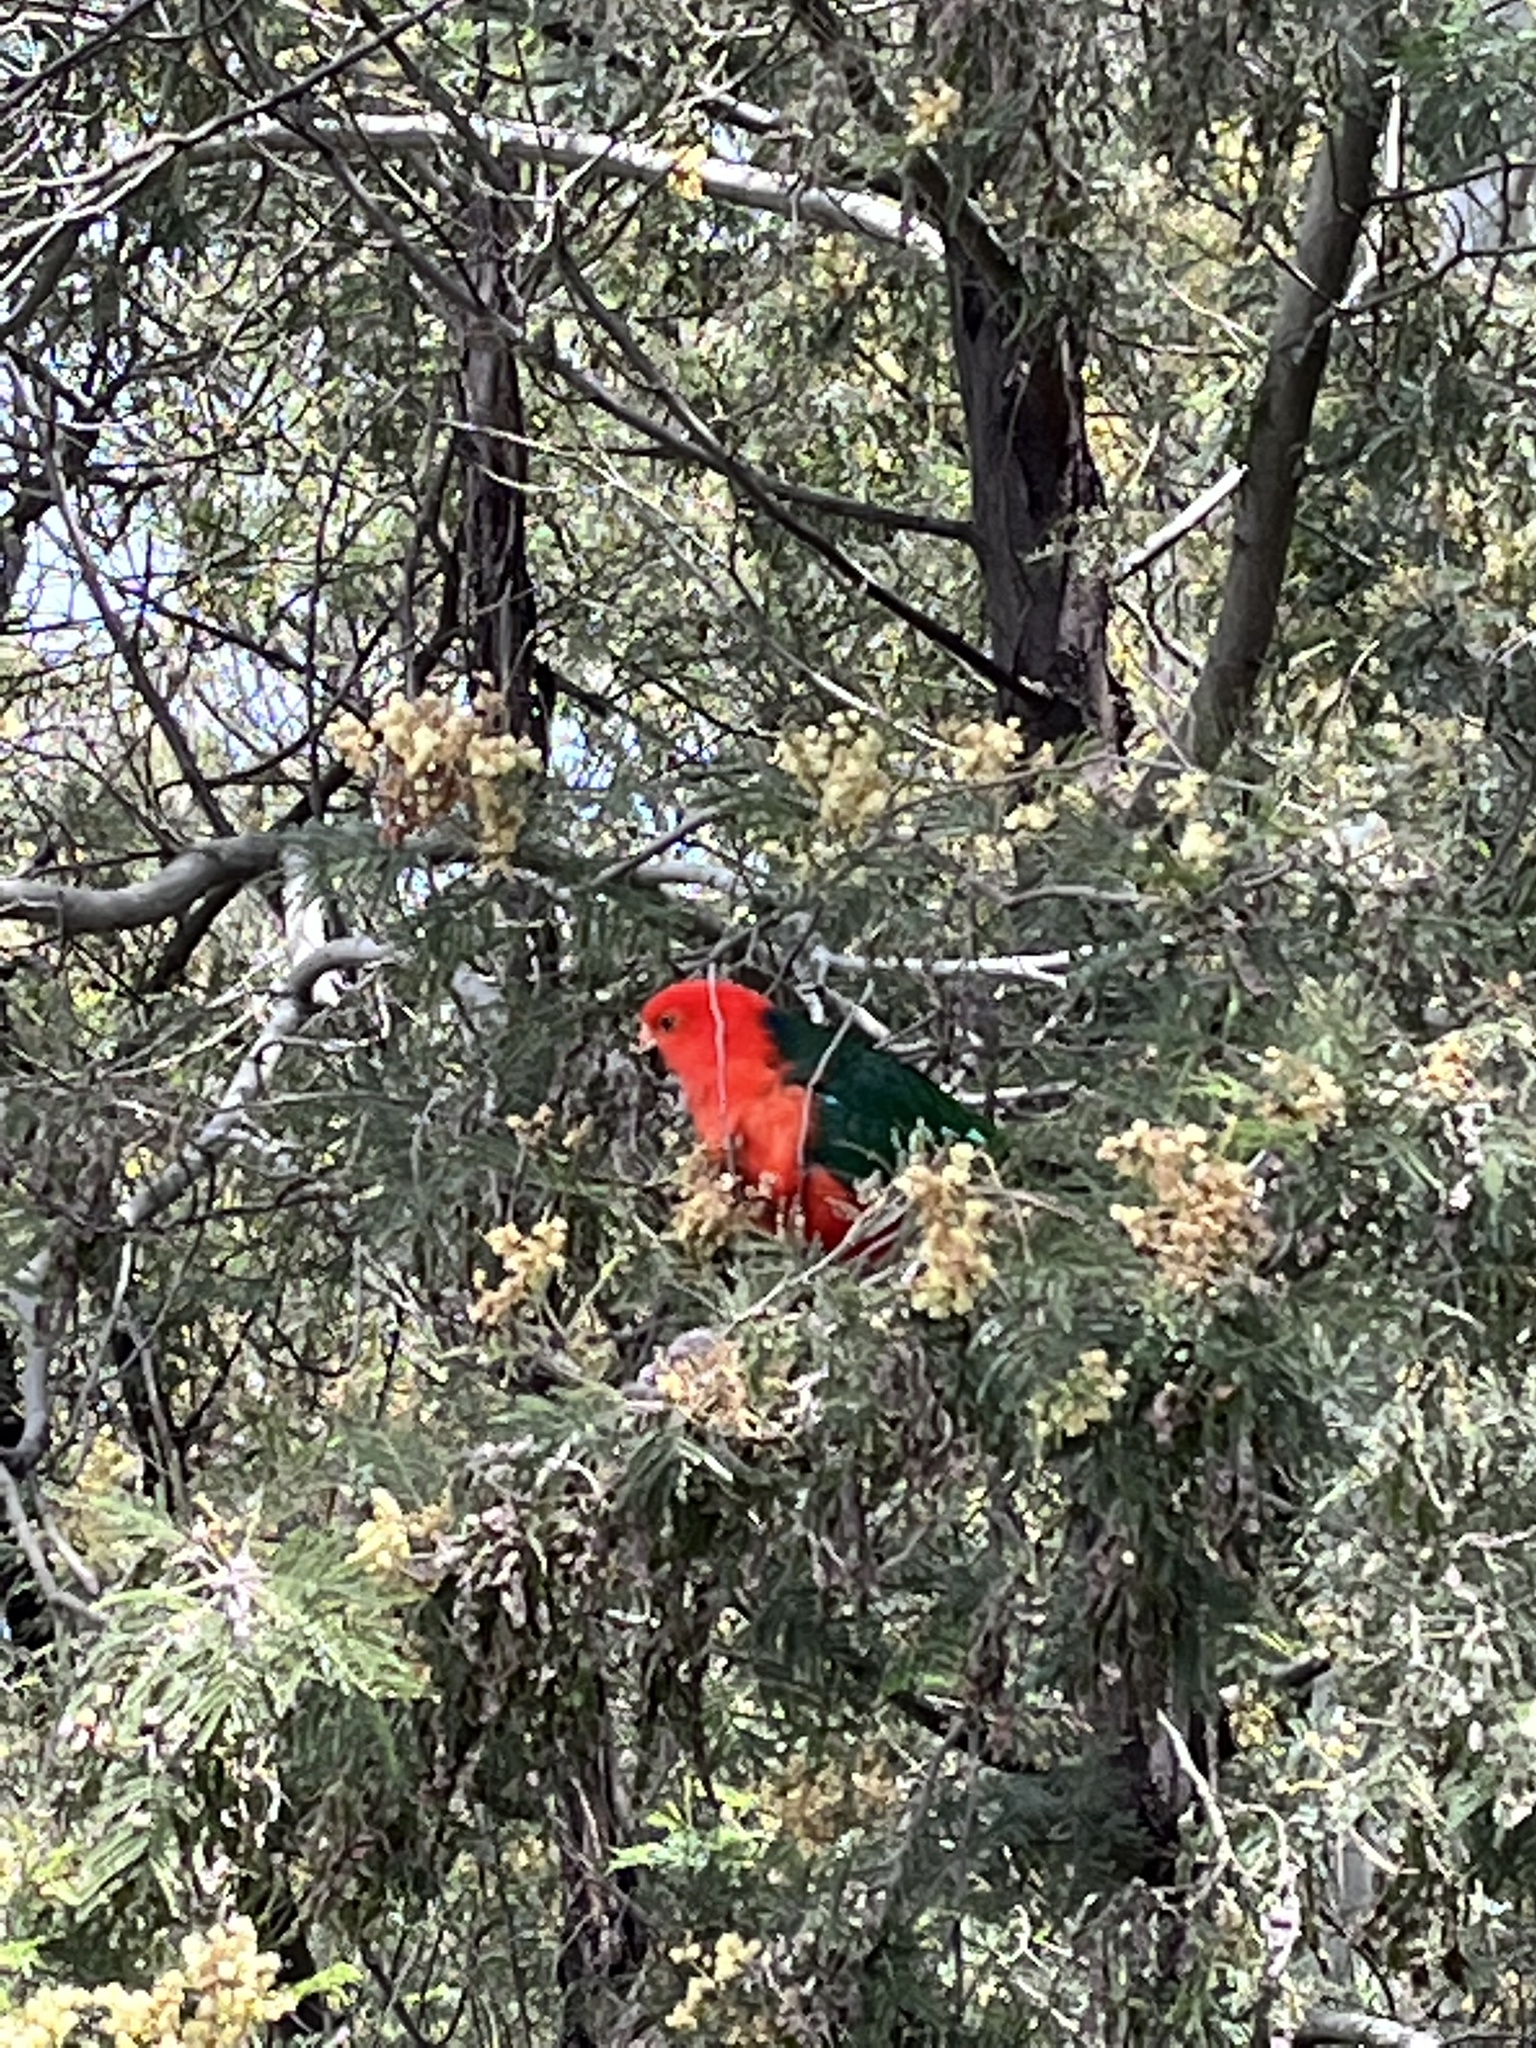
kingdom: Animalia
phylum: Chordata
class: Aves
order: Psittaciformes
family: Psittacidae
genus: Alisterus
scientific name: Alisterus scapularis
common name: Australian king parrot
